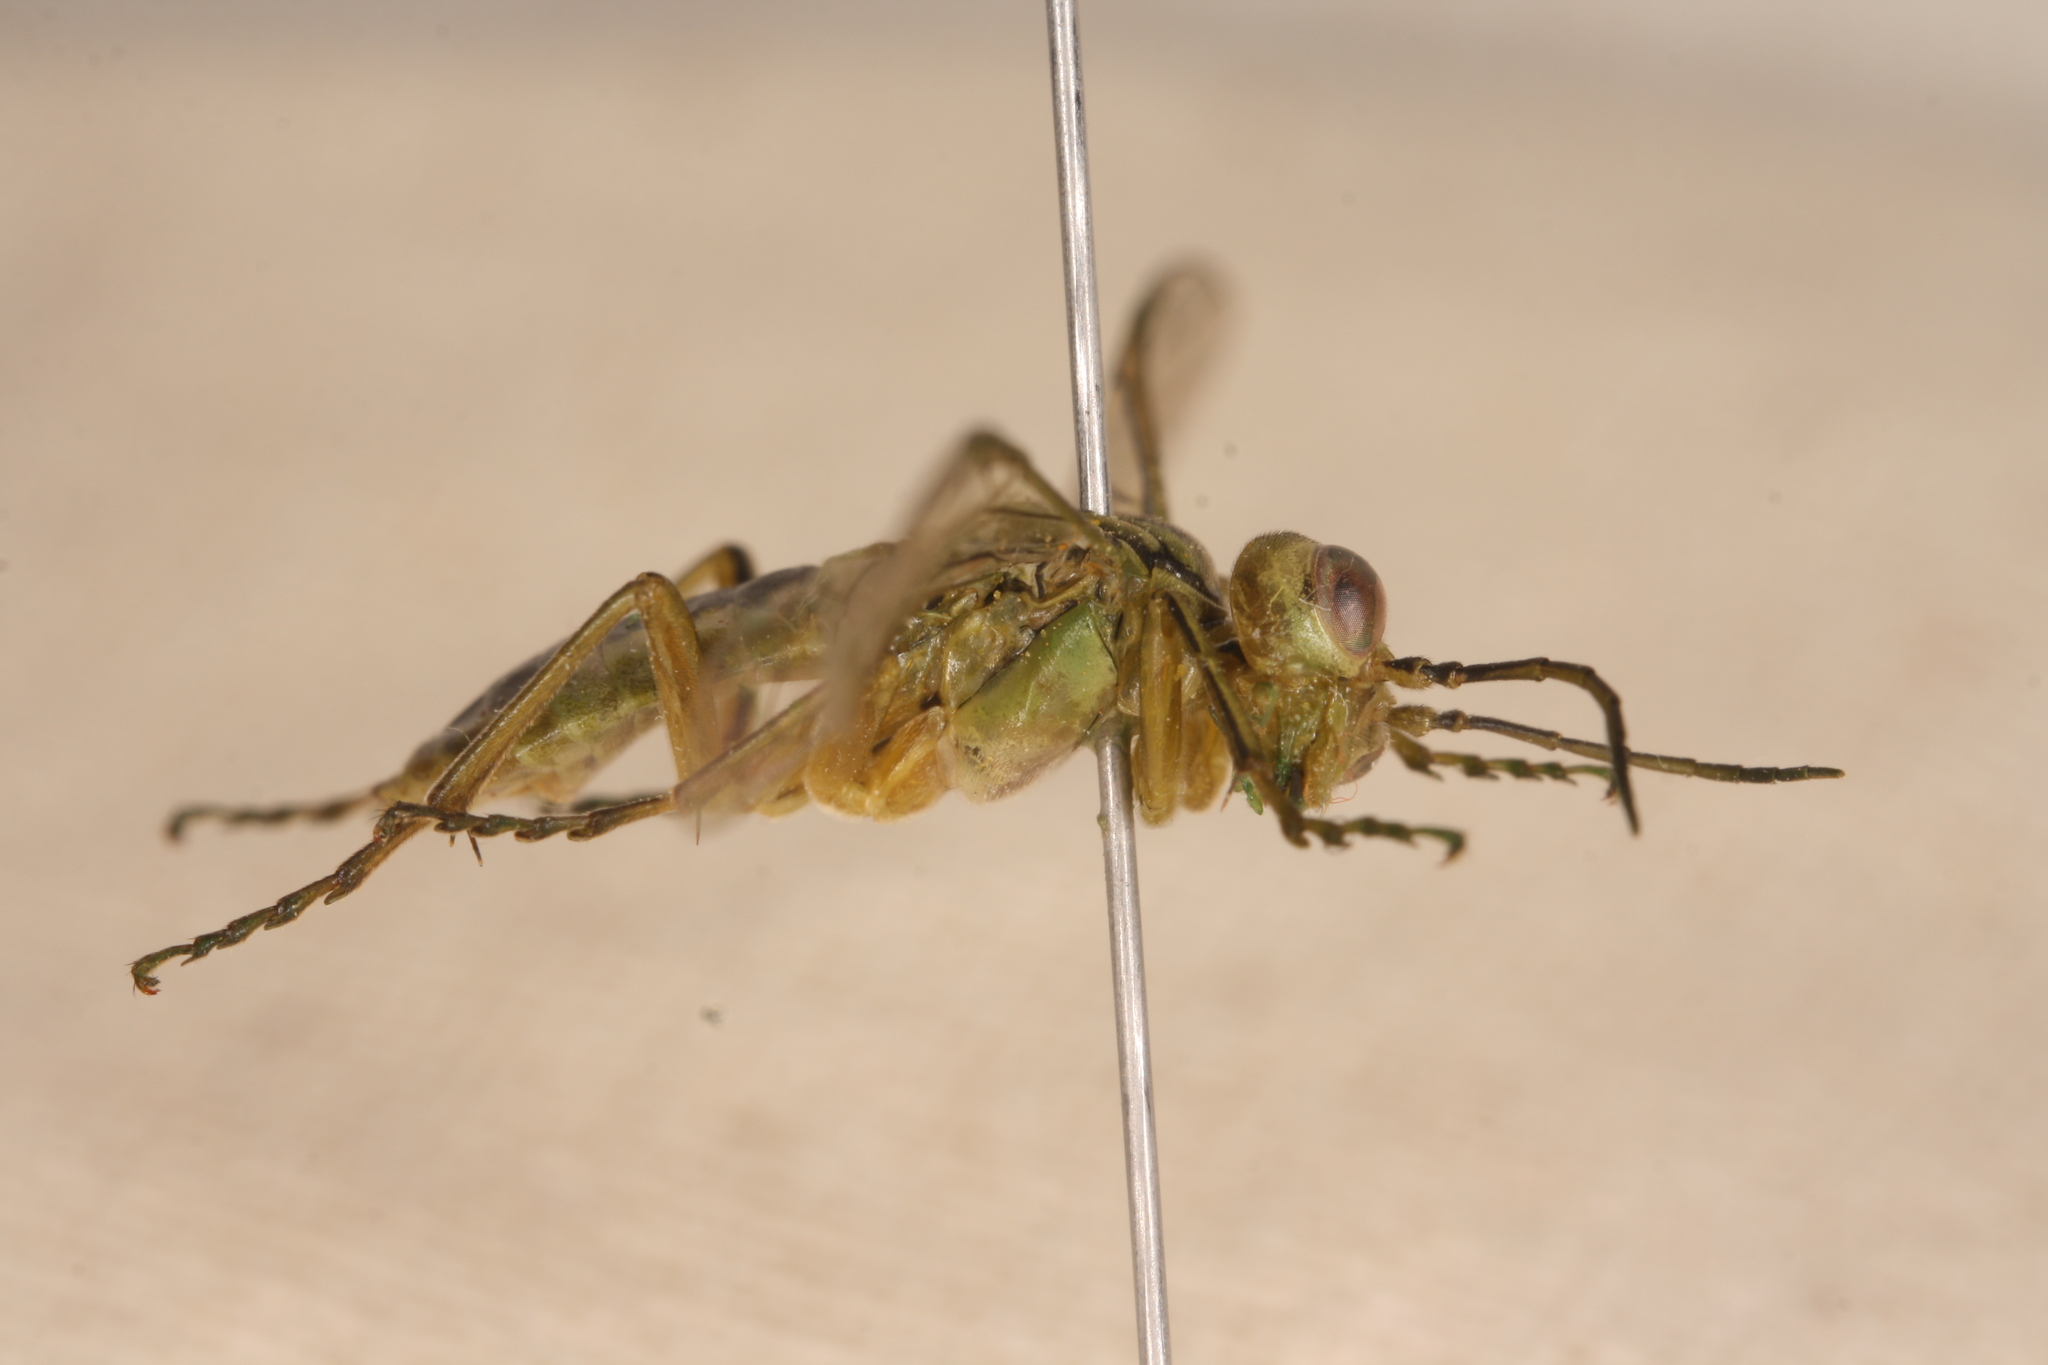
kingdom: Animalia
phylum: Arthropoda
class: Insecta
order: Hymenoptera
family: Tenthredinidae
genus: Tenthredo
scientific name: Tenthredo olivacea
